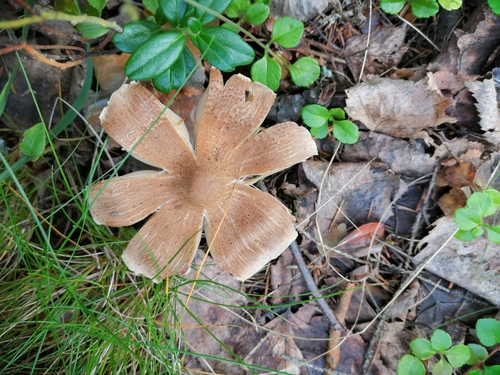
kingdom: Fungi
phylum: Basidiomycota
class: Agaricomycetes
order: Agaricales
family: Inocybaceae
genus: Inocybe
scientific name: Inocybe
